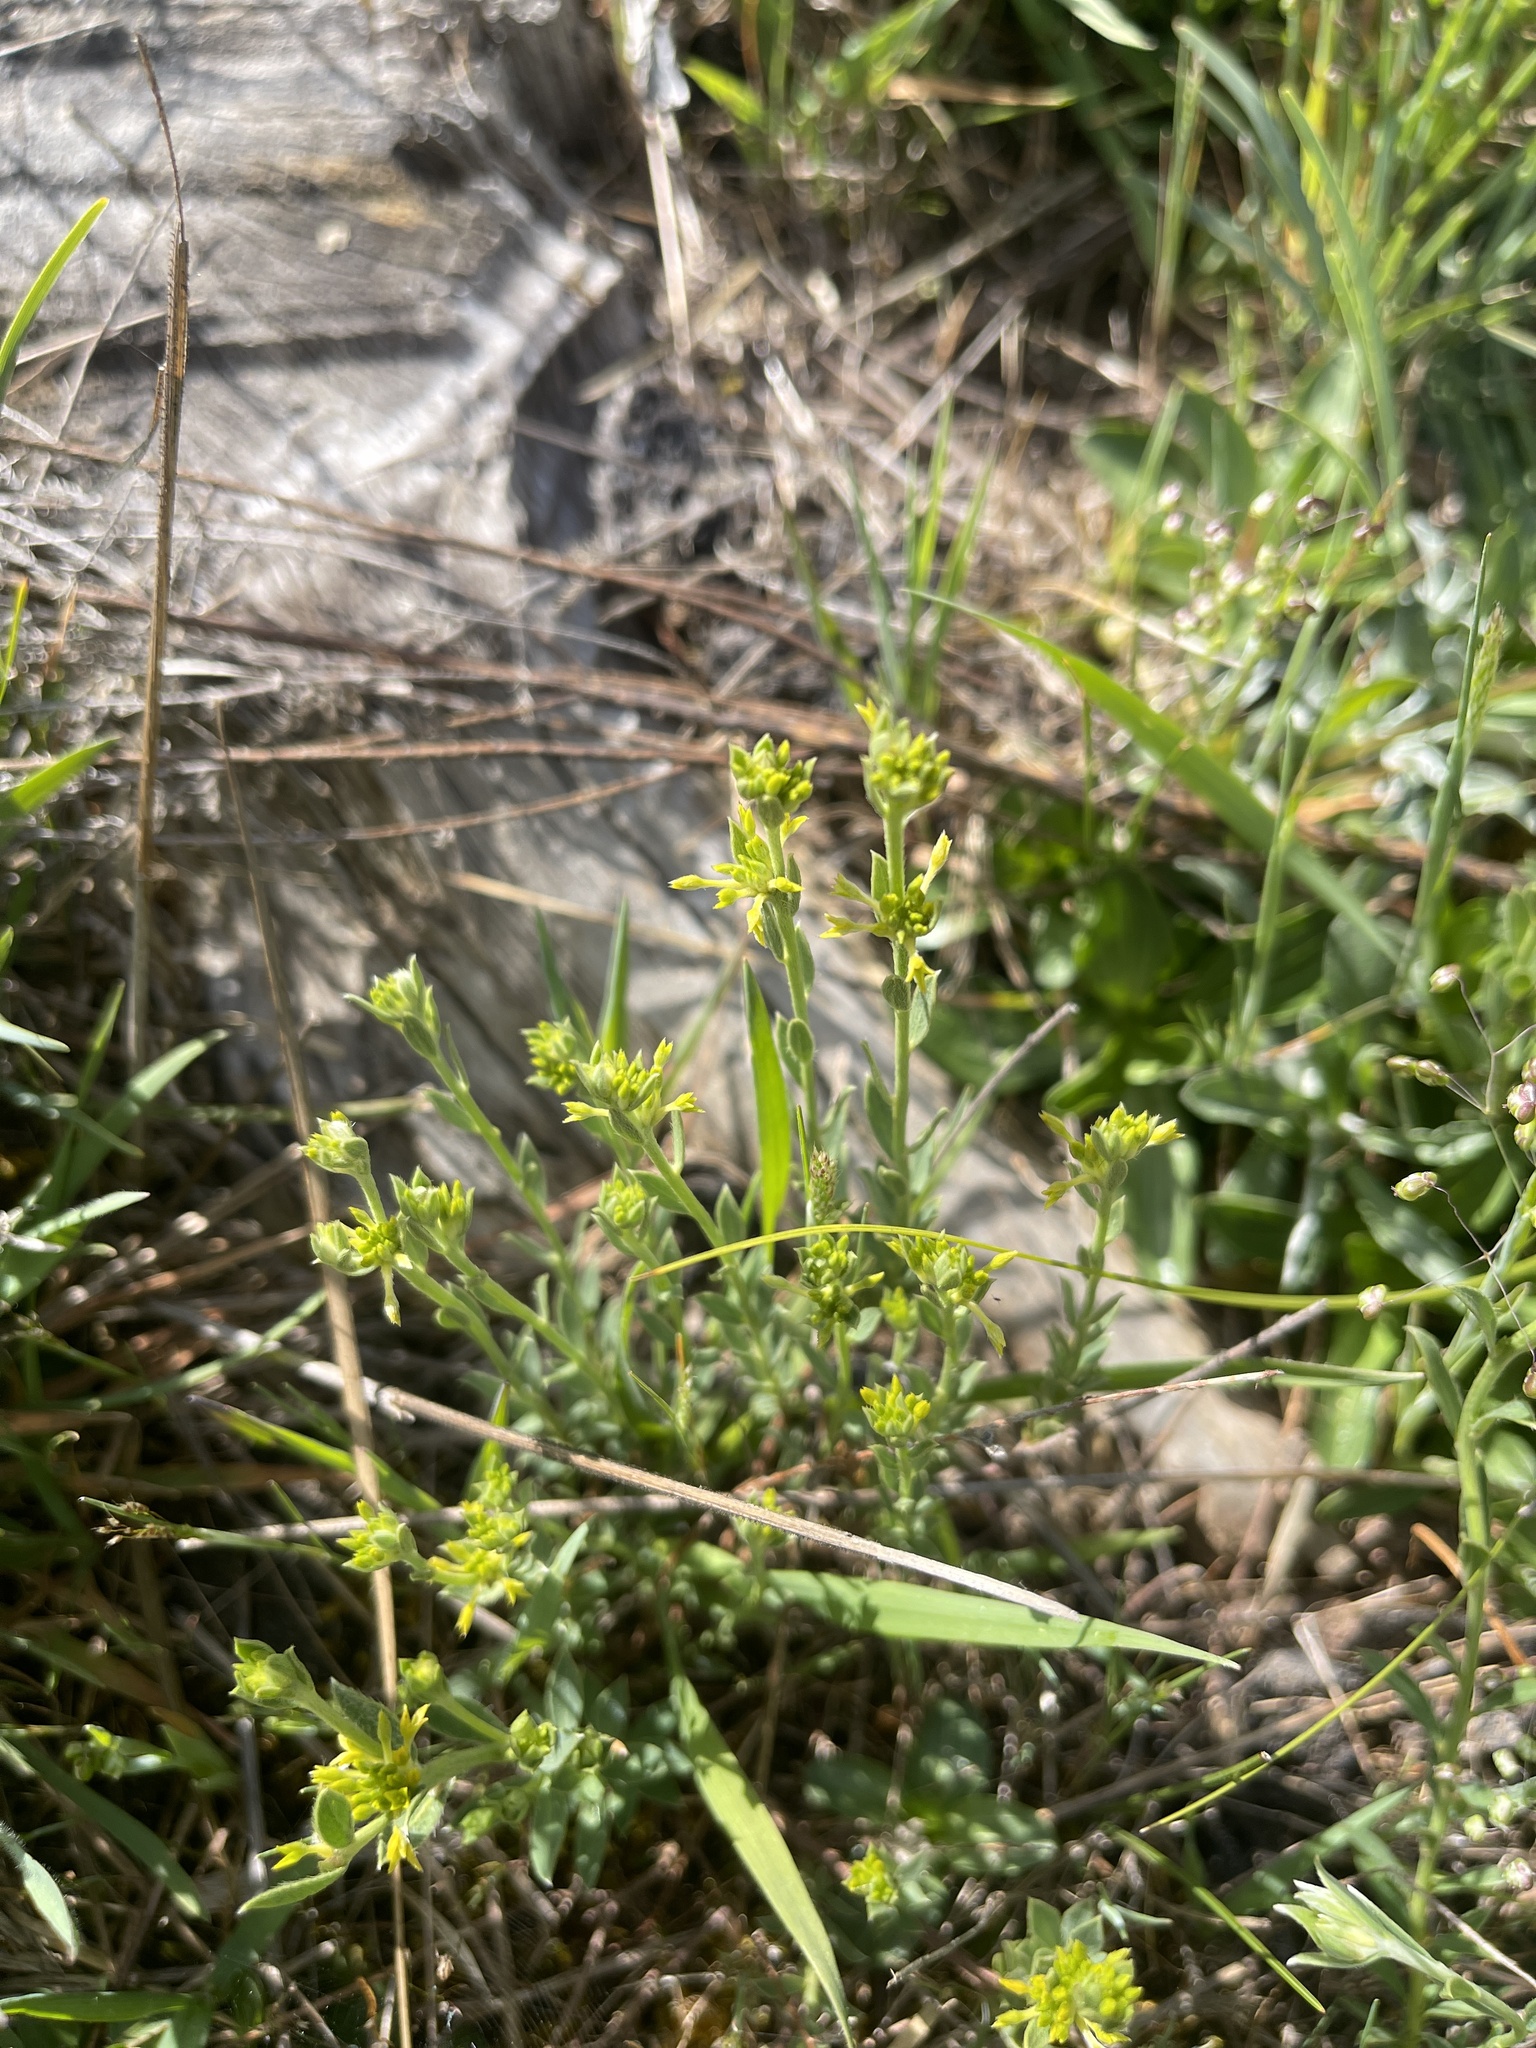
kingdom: Plantae
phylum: Tracheophyta
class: Magnoliopsida
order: Malvales
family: Thymelaeaceae
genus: Pimelea
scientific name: Pimelea curviflora
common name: Curved riceflower
